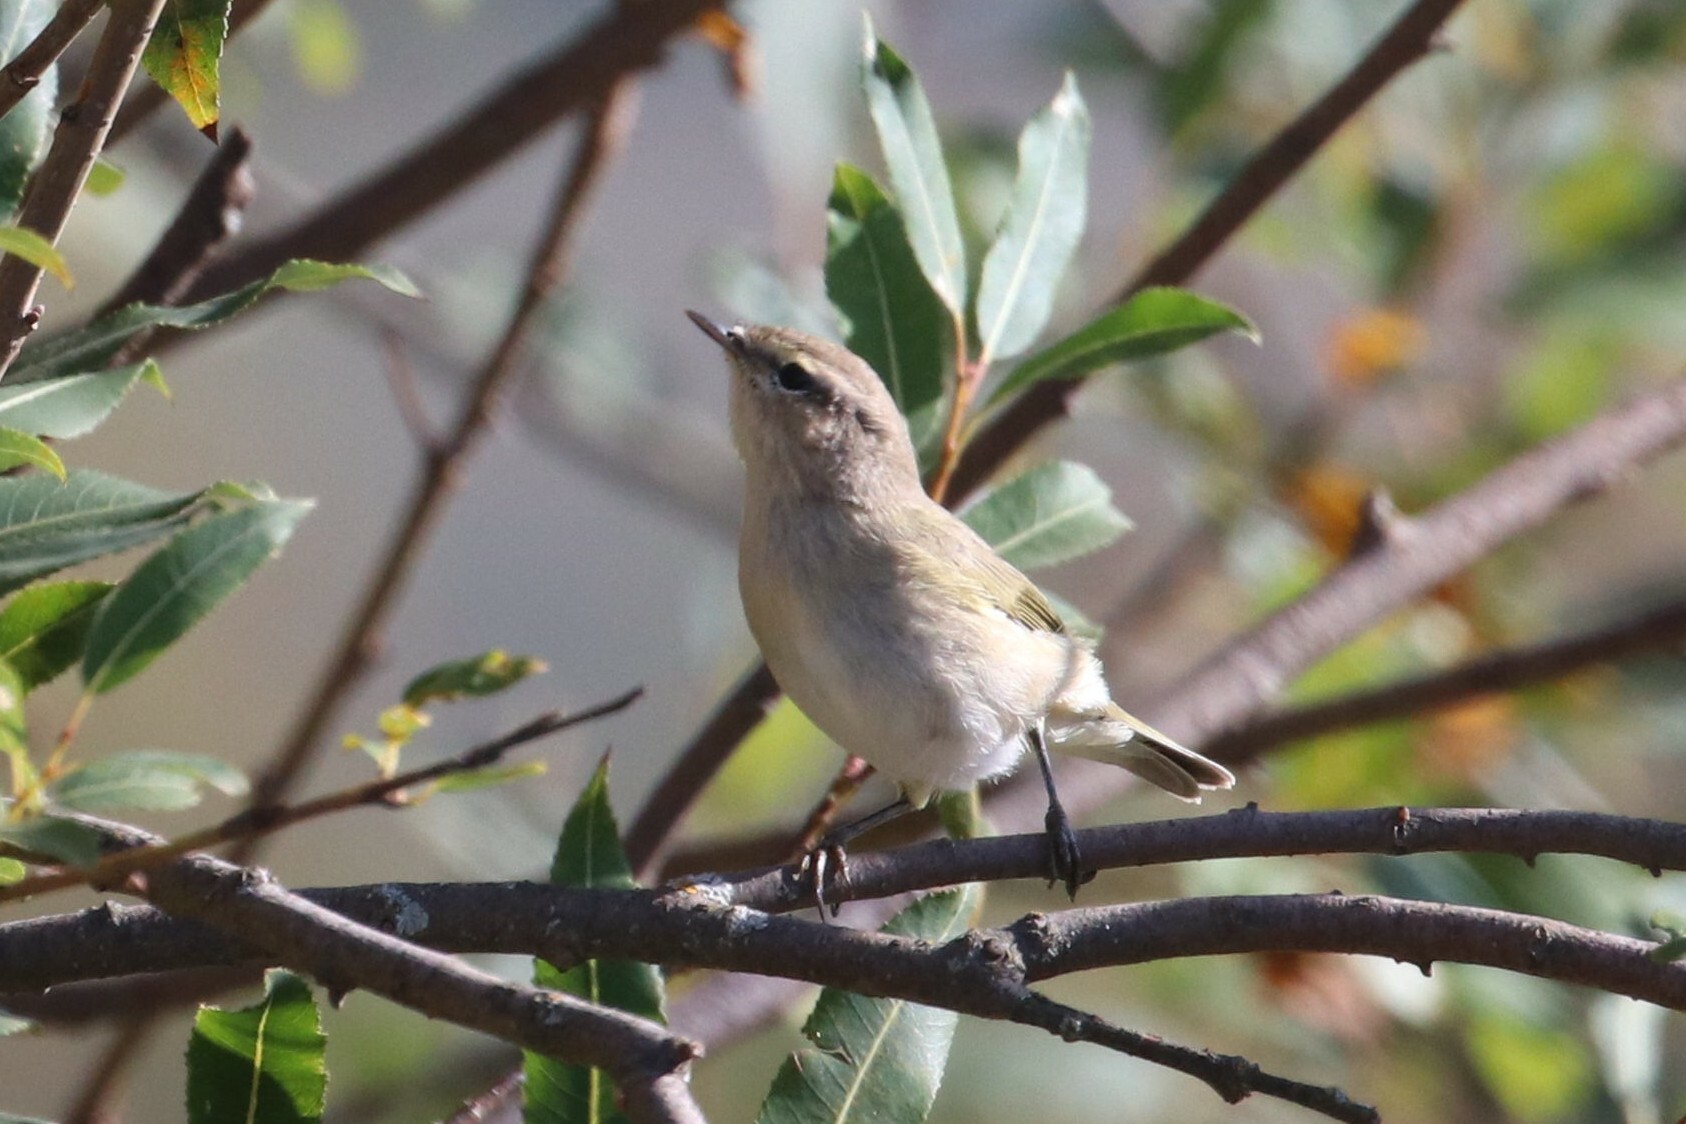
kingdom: Animalia
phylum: Chordata
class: Aves
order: Passeriformes
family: Phylloscopidae
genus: Phylloscopus
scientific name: Phylloscopus collybita
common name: Common chiffchaff
